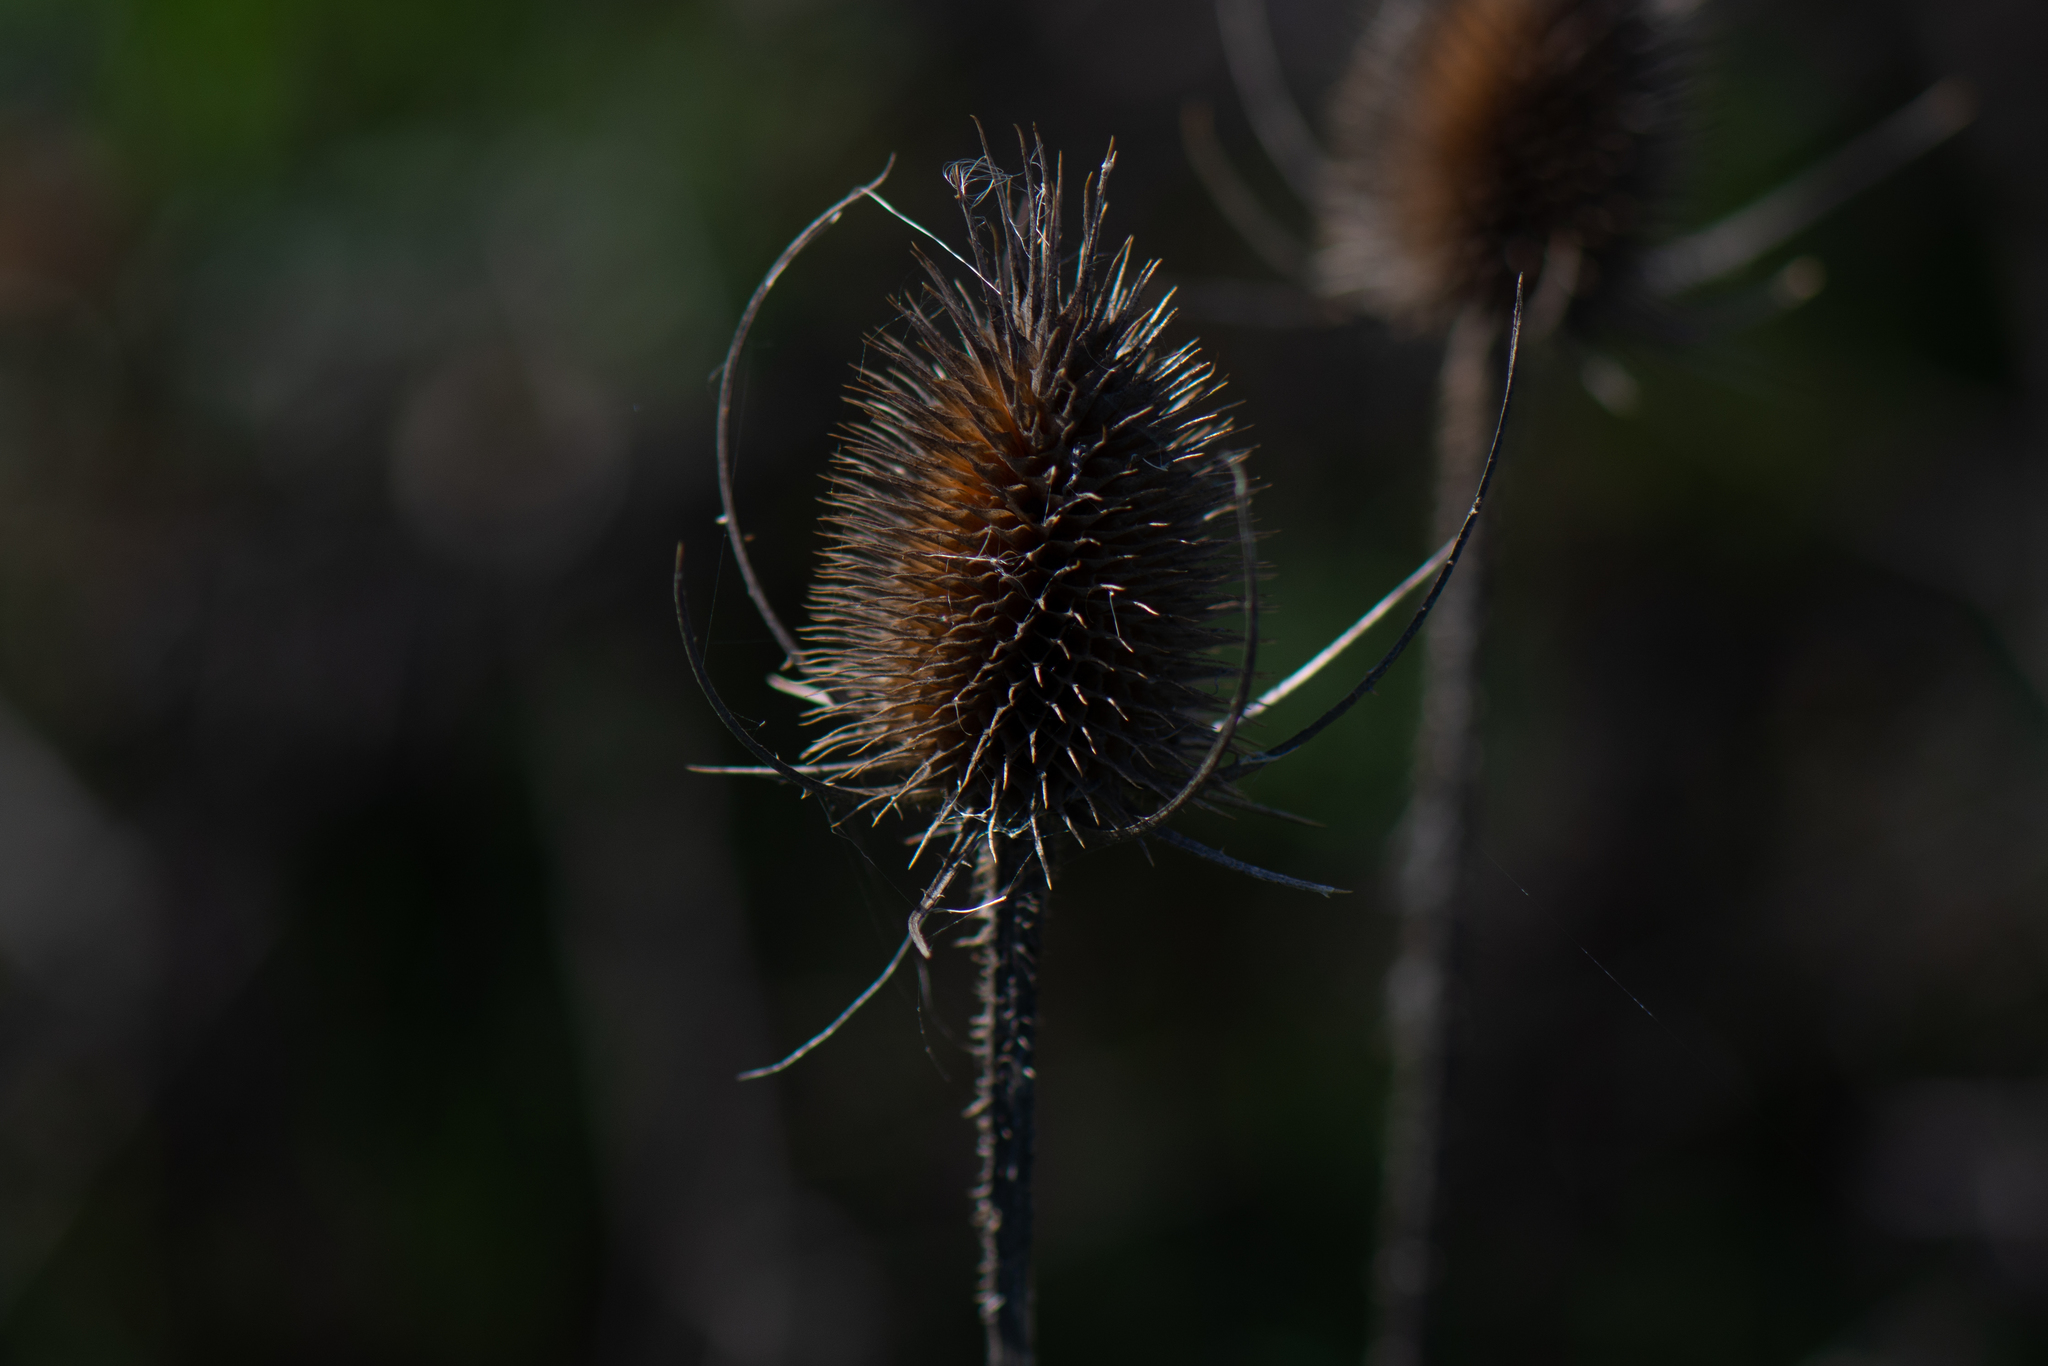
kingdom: Plantae
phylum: Tracheophyta
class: Magnoliopsida
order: Dipsacales
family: Caprifoliaceae
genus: Dipsacus
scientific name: Dipsacus fullonum
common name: Teasel
